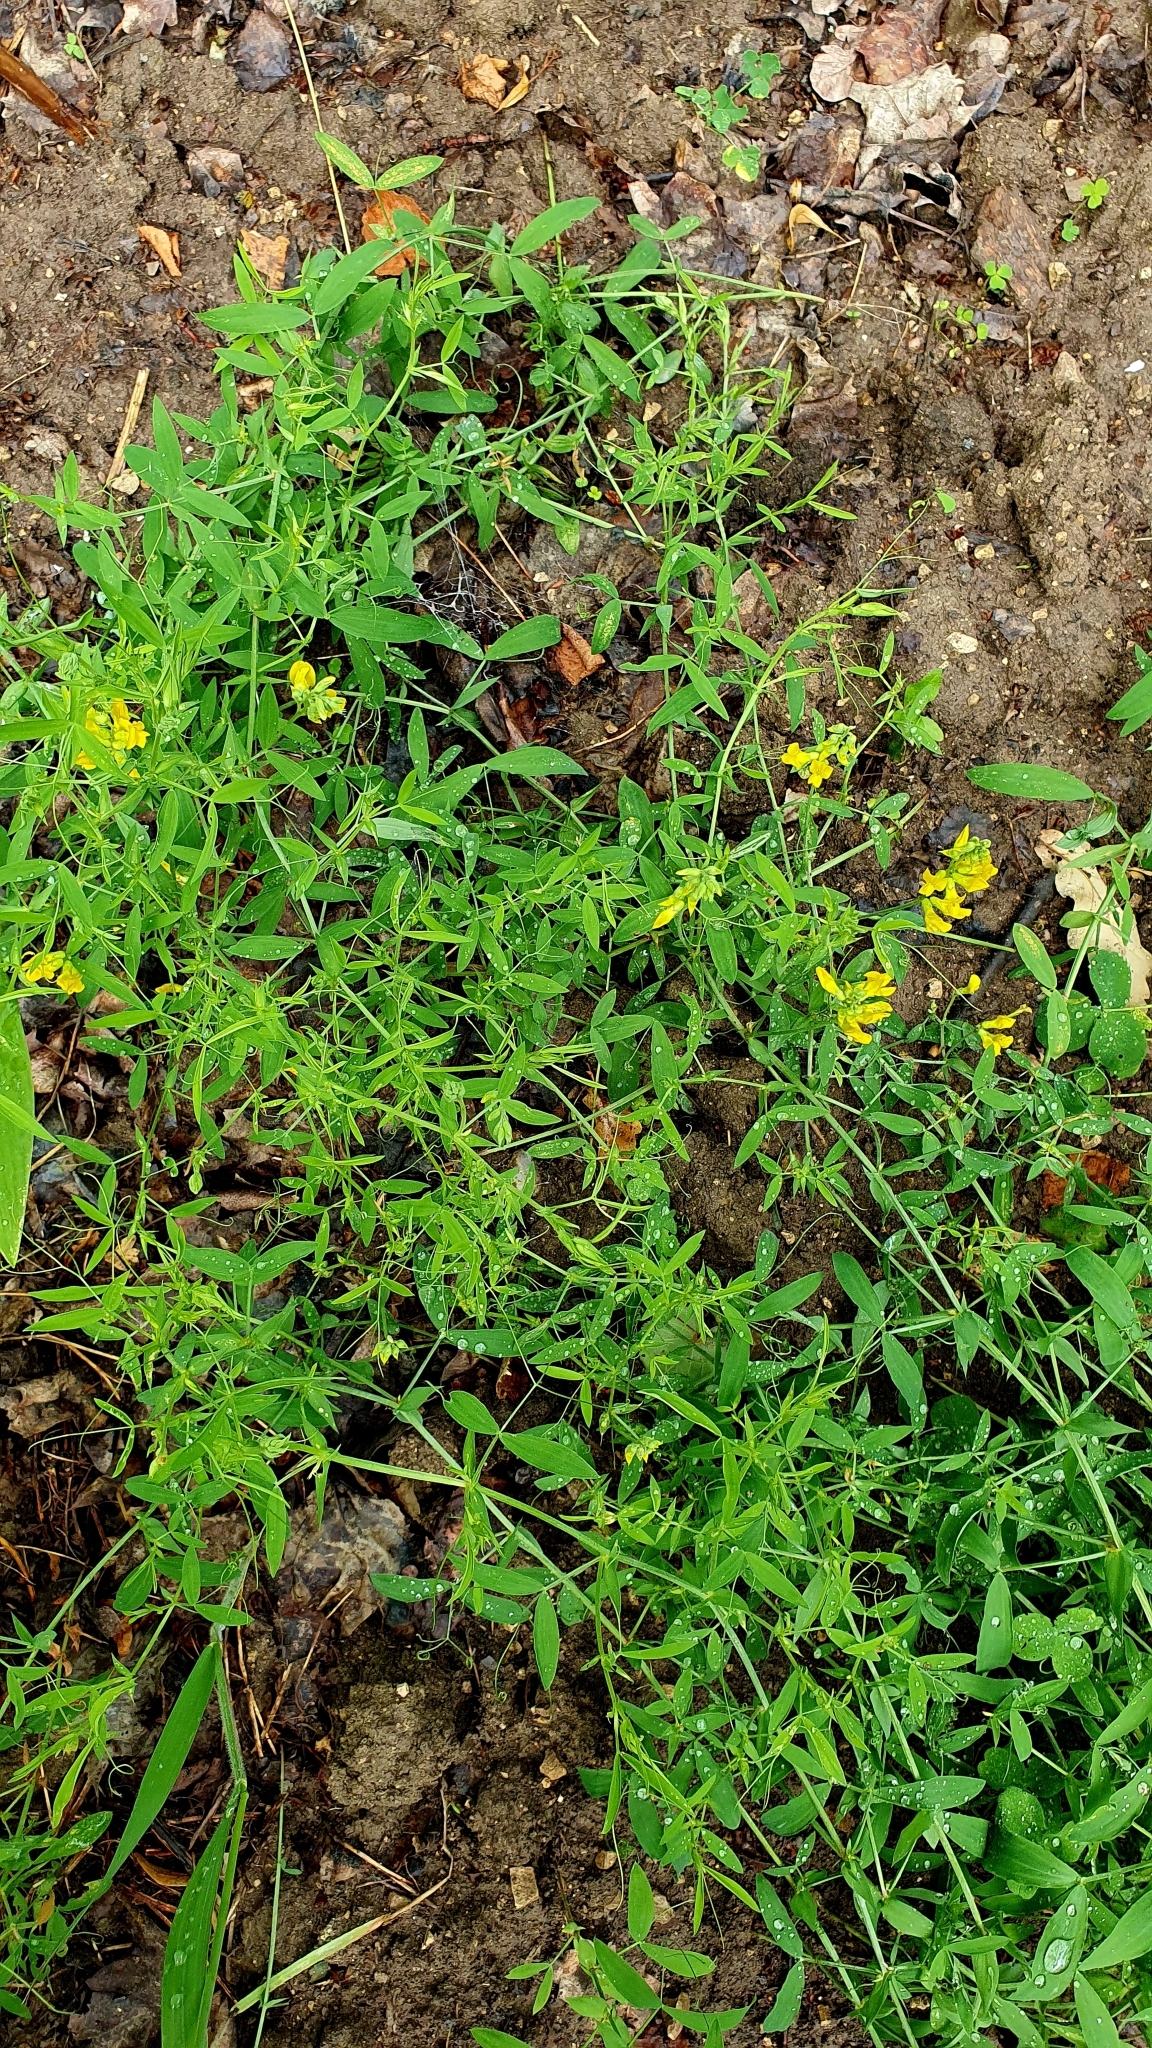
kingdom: Plantae
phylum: Tracheophyta
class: Magnoliopsida
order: Fabales
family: Fabaceae
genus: Lathyrus
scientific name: Lathyrus pratensis
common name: Meadow vetchling
